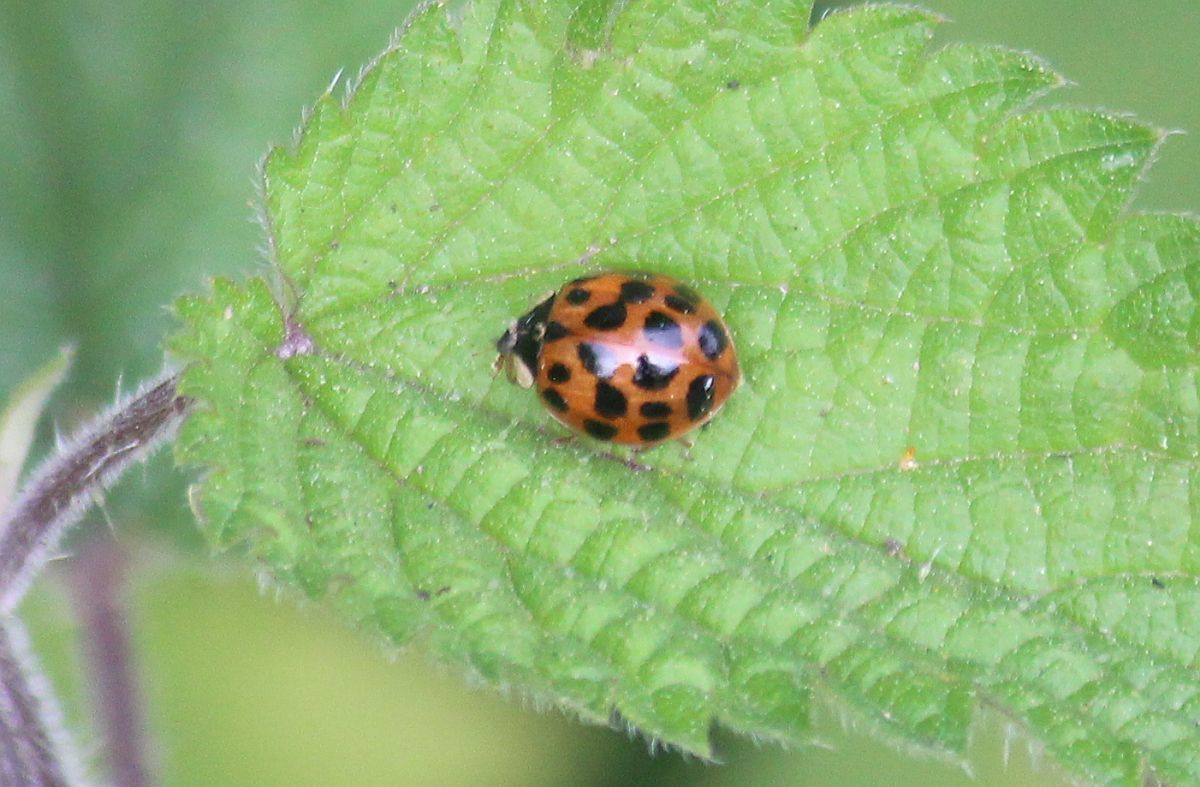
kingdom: Animalia
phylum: Arthropoda
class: Insecta
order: Coleoptera
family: Coccinellidae
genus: Harmonia
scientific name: Harmonia axyridis
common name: Harlequin ladybird
